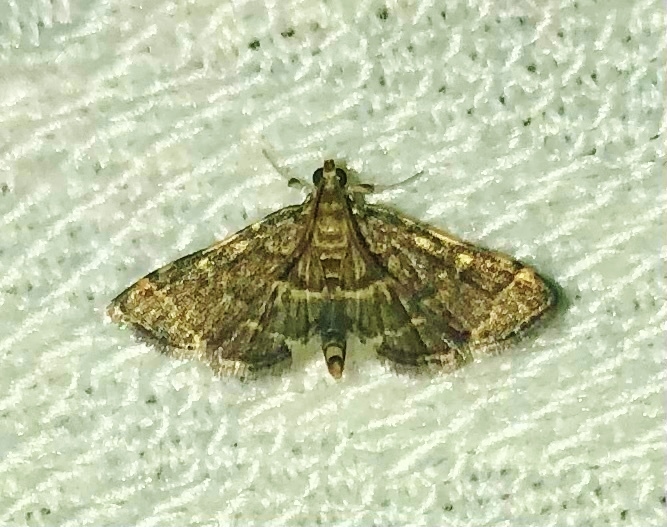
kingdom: Animalia
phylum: Arthropoda
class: Insecta
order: Lepidoptera
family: Crambidae
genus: Anageshna
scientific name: Anageshna primordialis
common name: Yellow-spotted webworm moth
